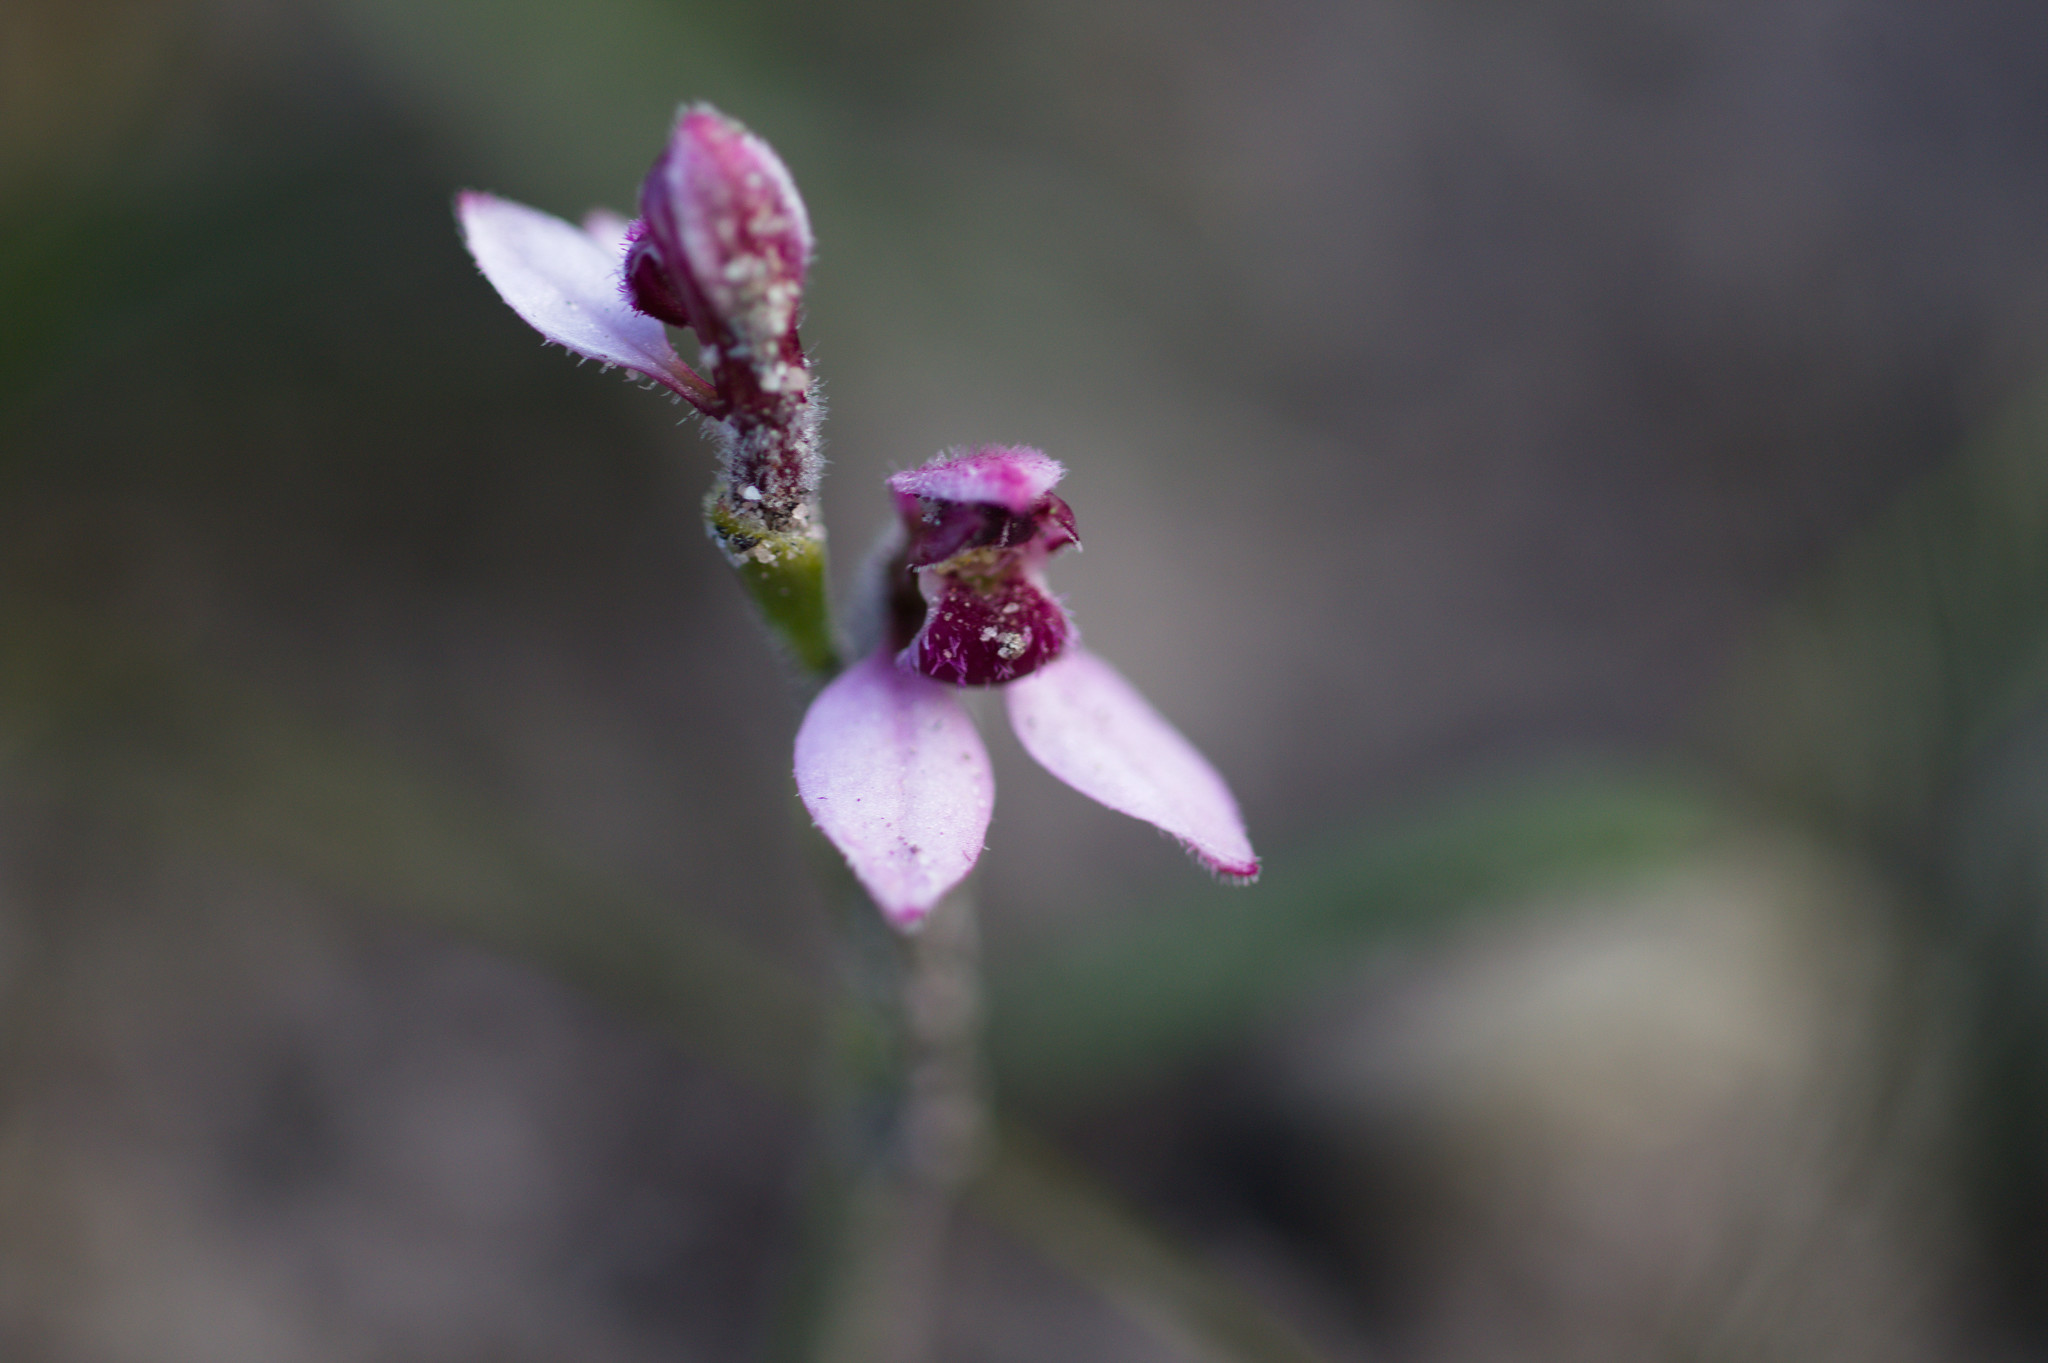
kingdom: Plantae
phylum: Tracheophyta
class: Liliopsida
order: Asparagales
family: Orchidaceae
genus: Eriochilus
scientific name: Eriochilus scaber
